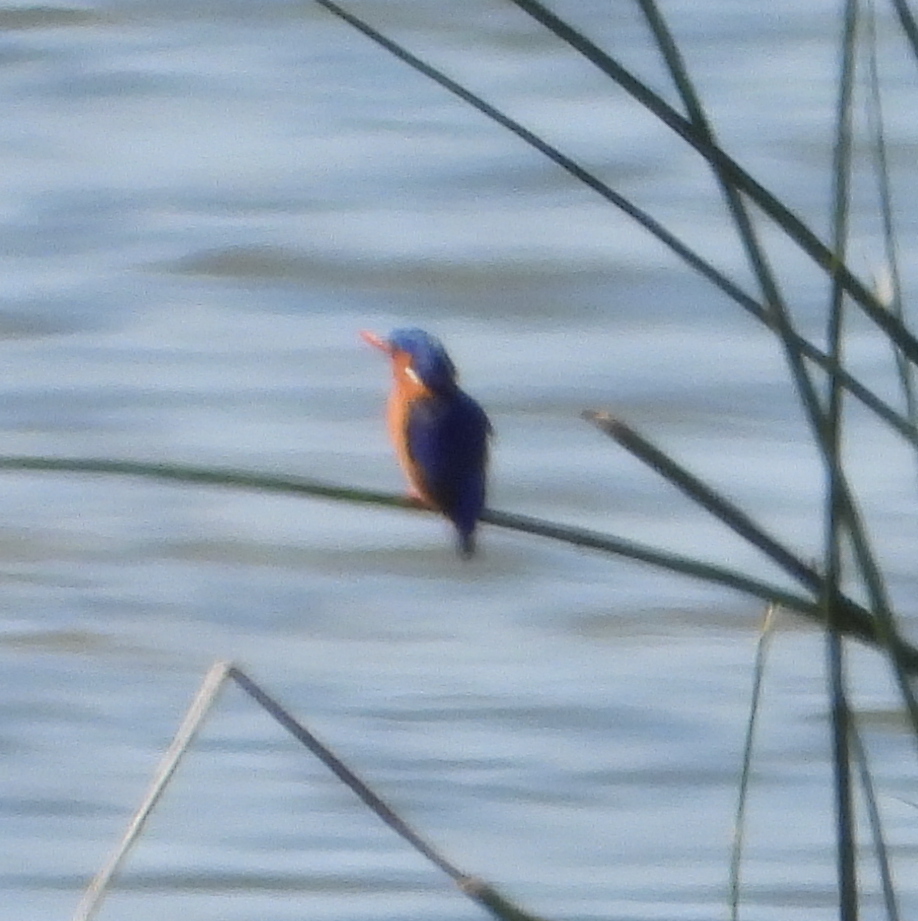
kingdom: Animalia
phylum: Chordata
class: Aves
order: Coraciiformes
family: Alcedinidae
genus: Corythornis
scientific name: Corythornis cristatus
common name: Malachite kingfisher
